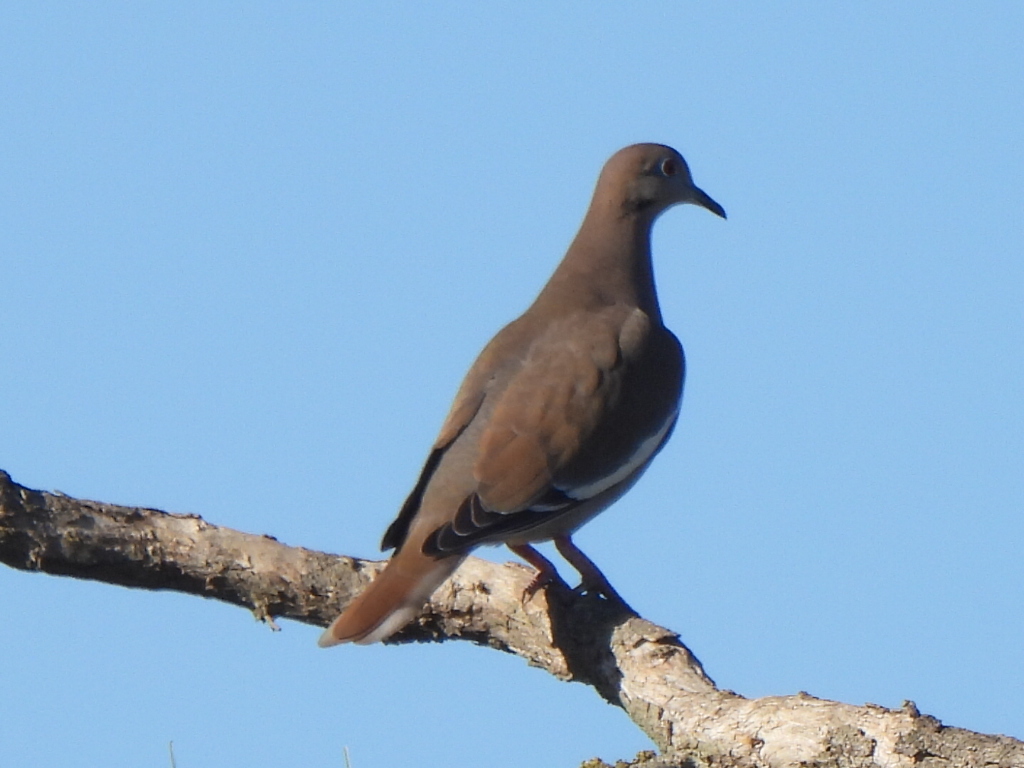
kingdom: Animalia
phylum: Chordata
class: Aves
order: Columbiformes
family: Columbidae
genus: Zenaida
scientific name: Zenaida asiatica
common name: White-winged dove
